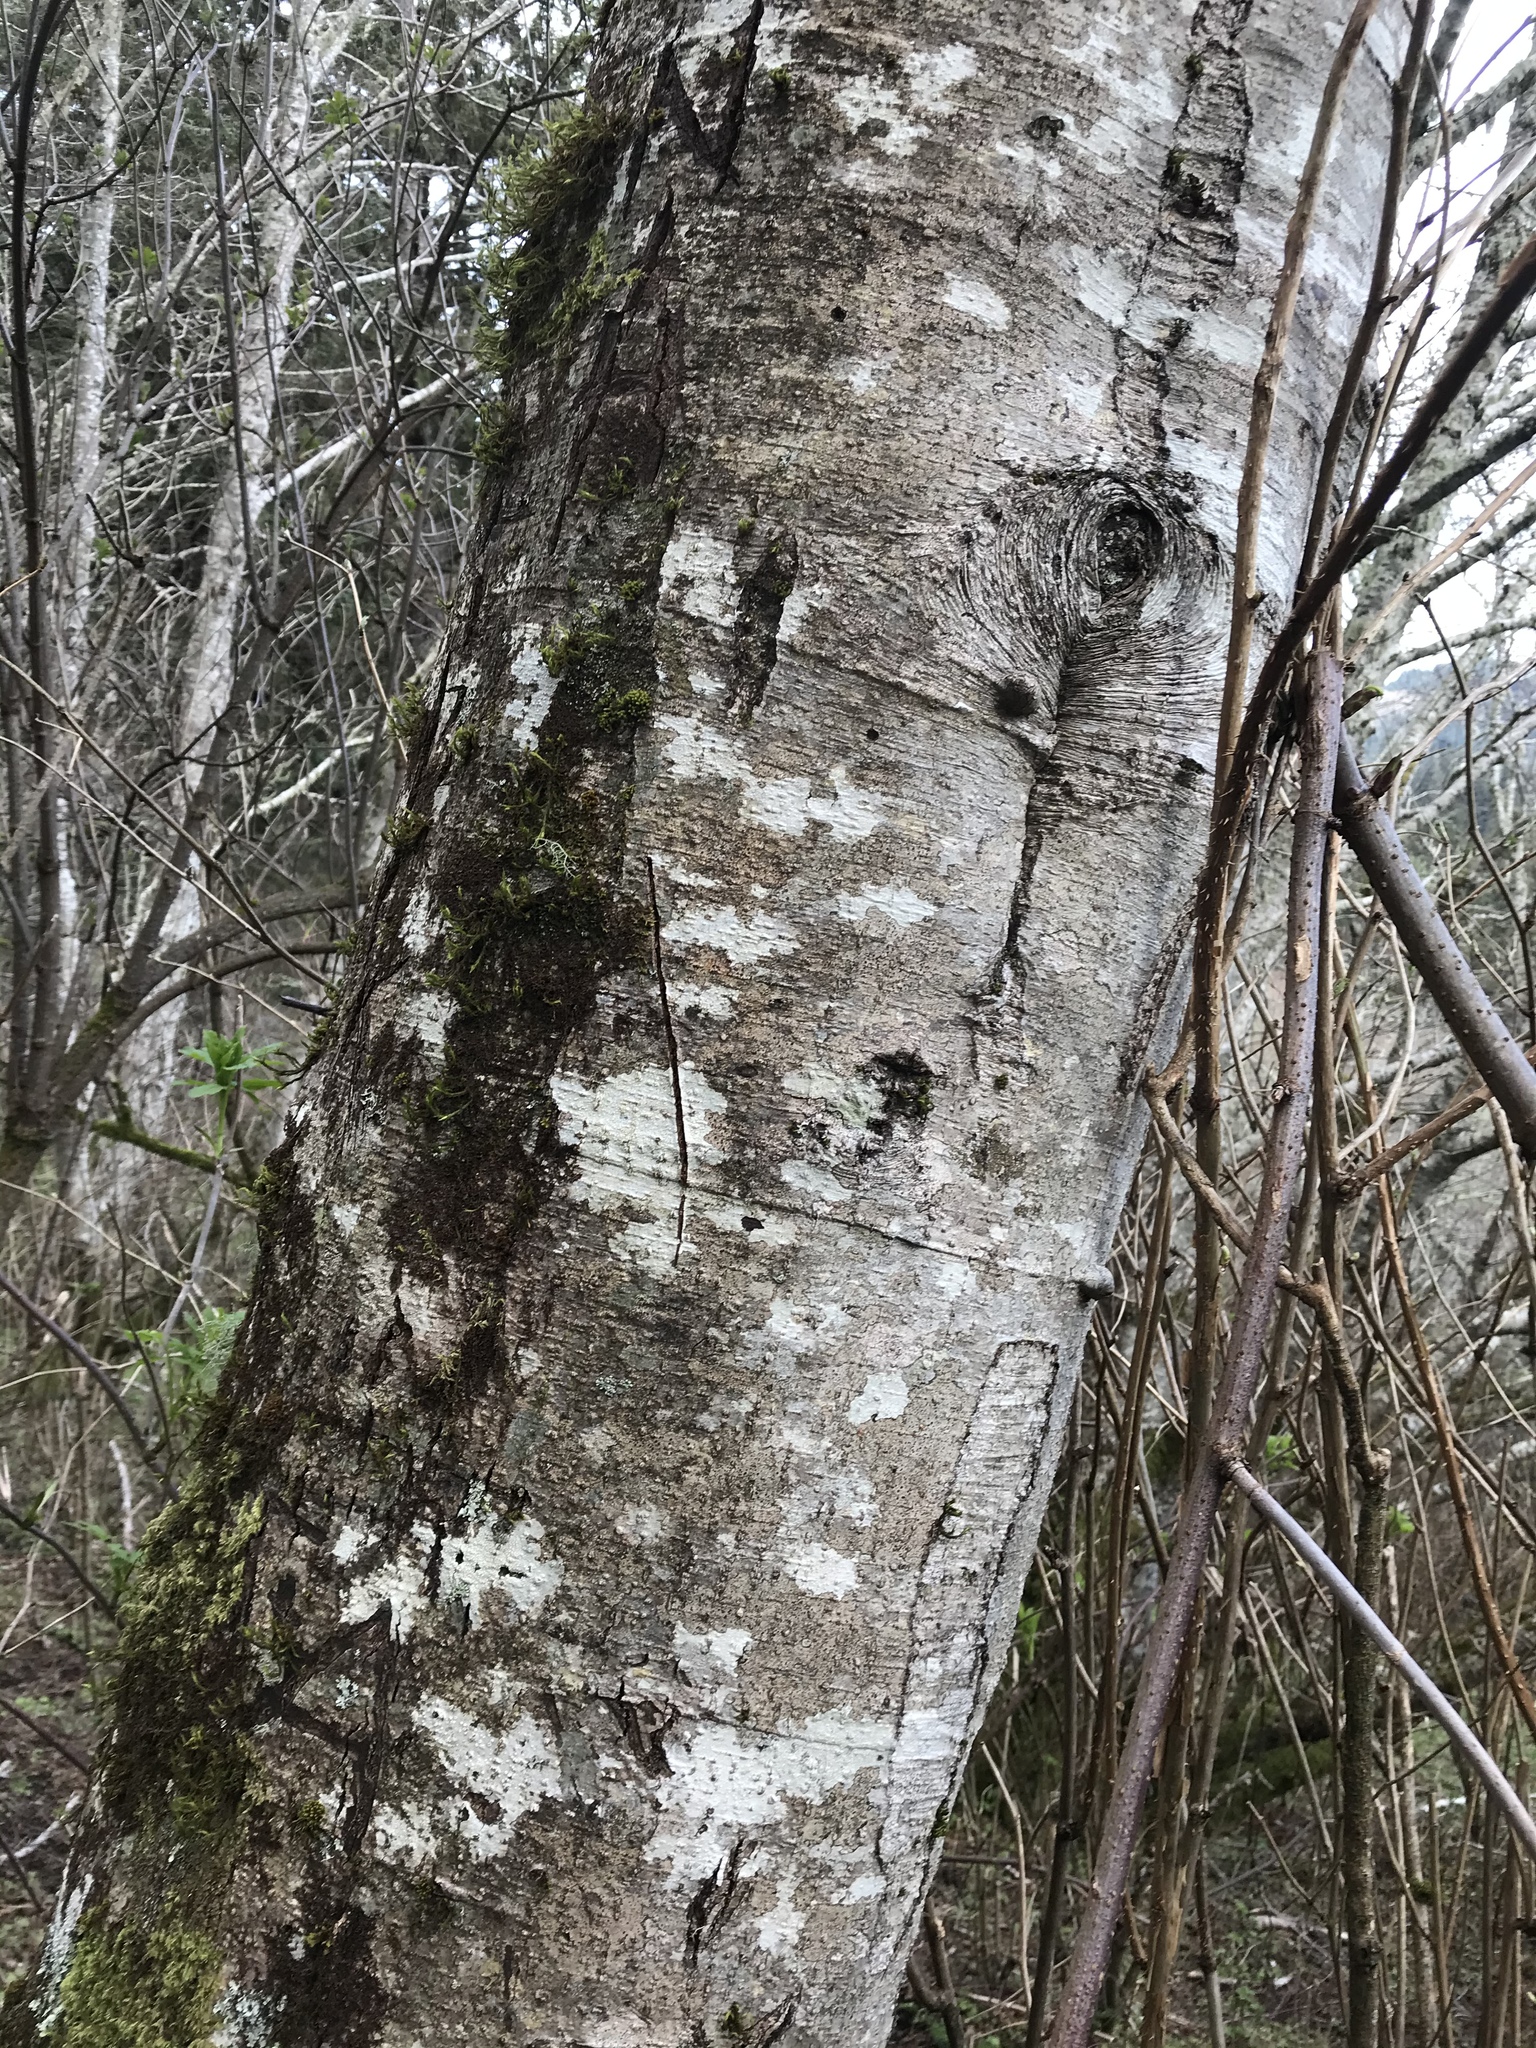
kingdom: Plantae
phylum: Tracheophyta
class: Magnoliopsida
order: Fagales
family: Betulaceae
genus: Alnus
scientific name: Alnus rubra
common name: Red alder
